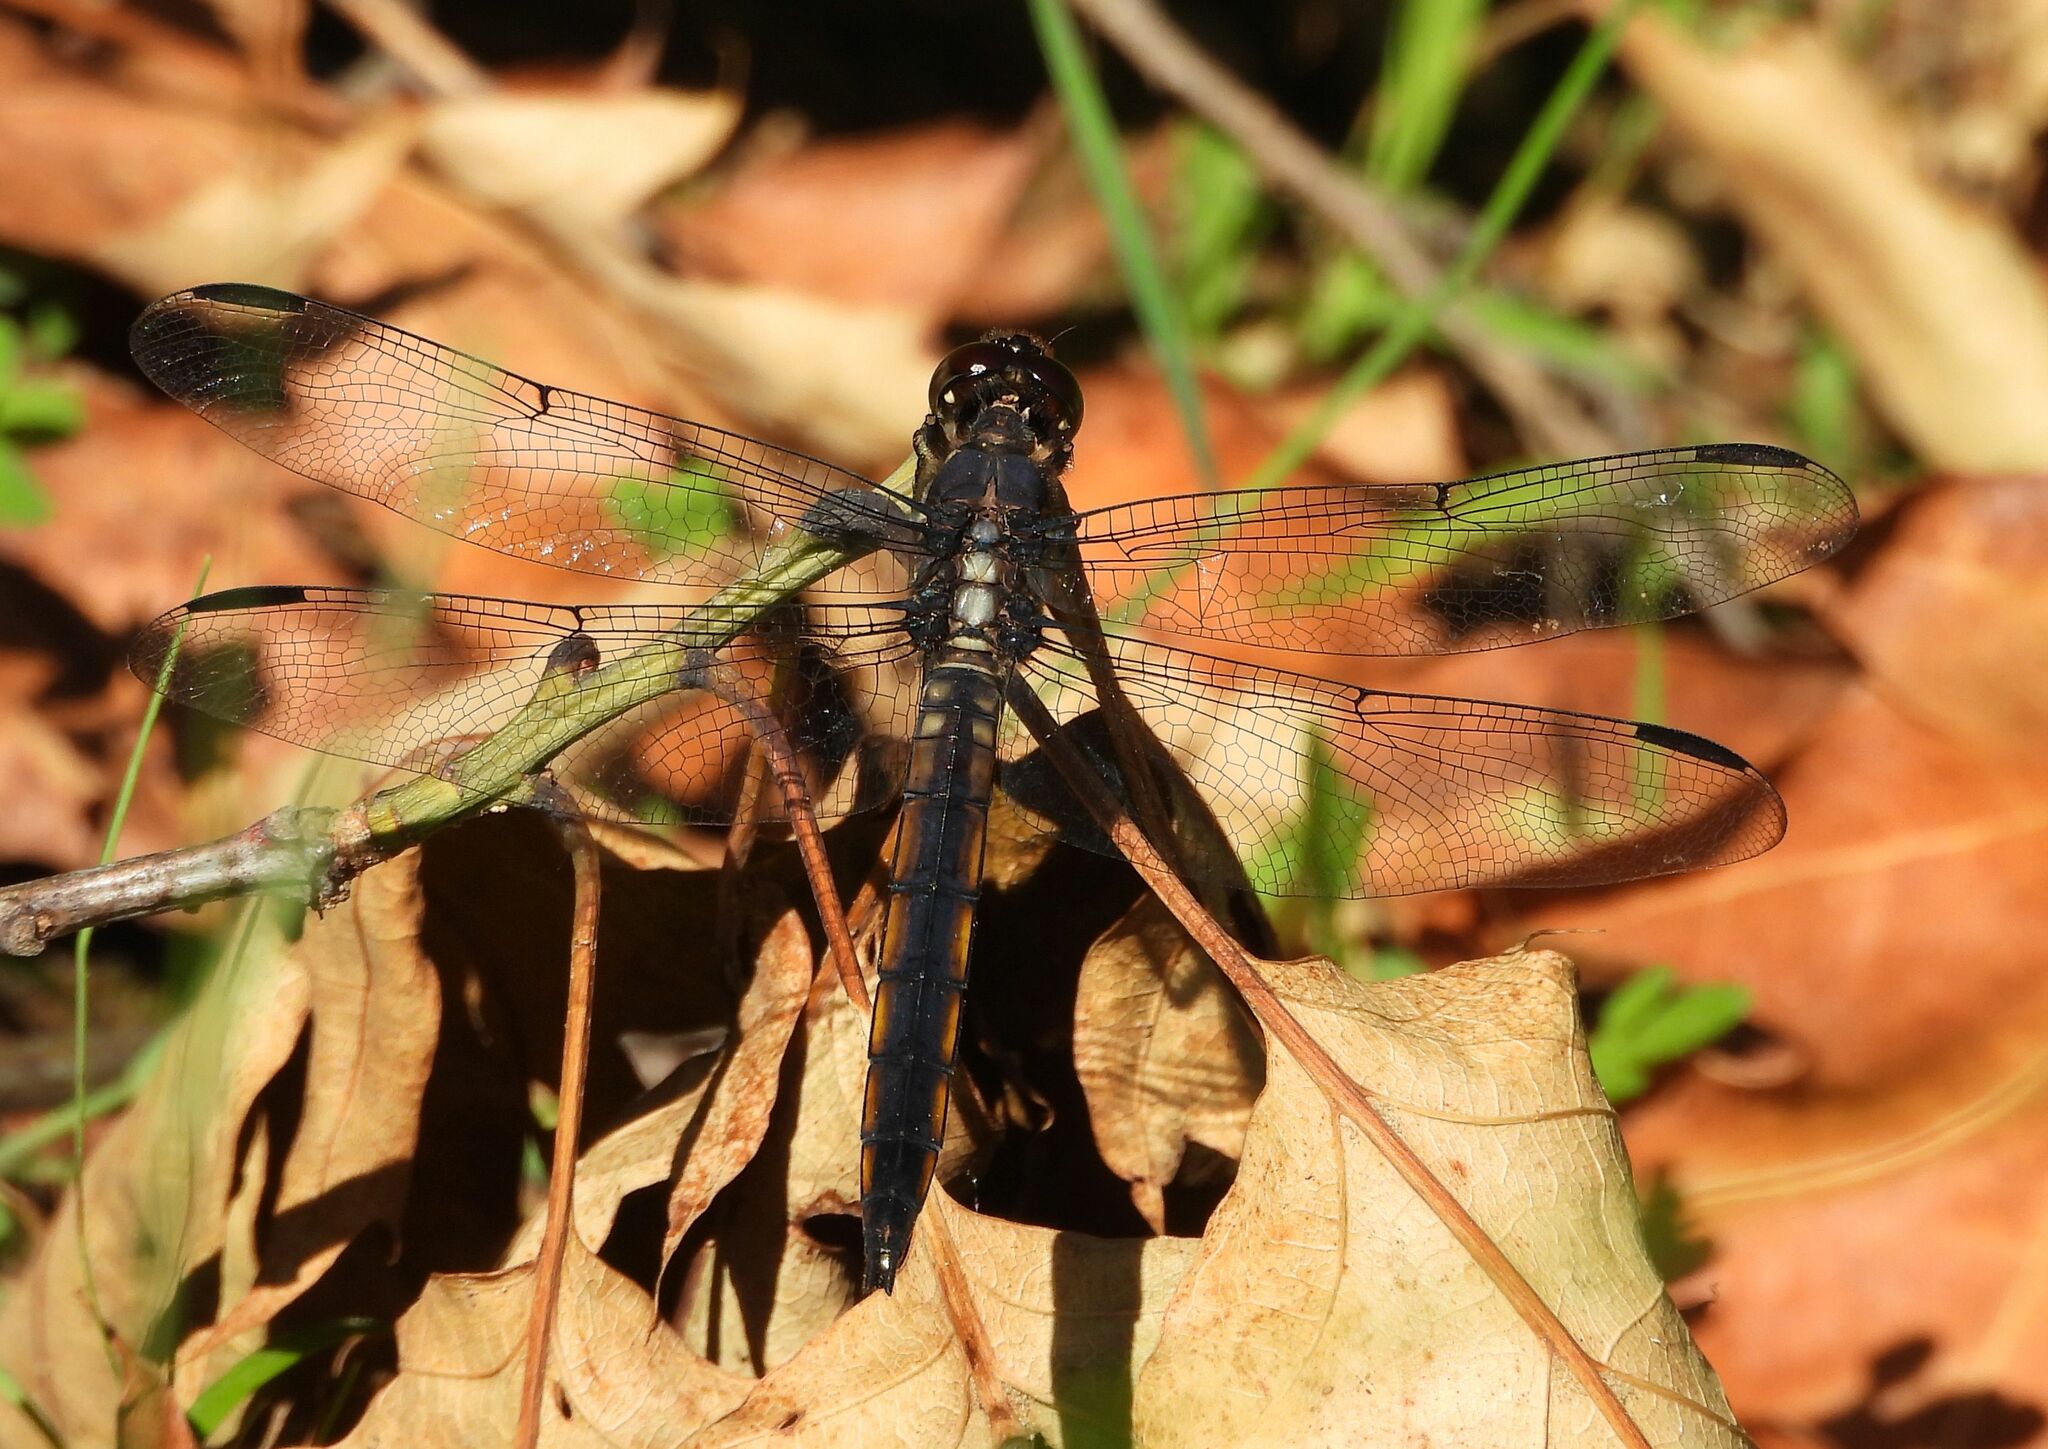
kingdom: Animalia
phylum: Arthropoda
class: Insecta
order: Odonata
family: Libellulidae
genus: Libellula
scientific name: Libellula incesta
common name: Slaty skimmer
